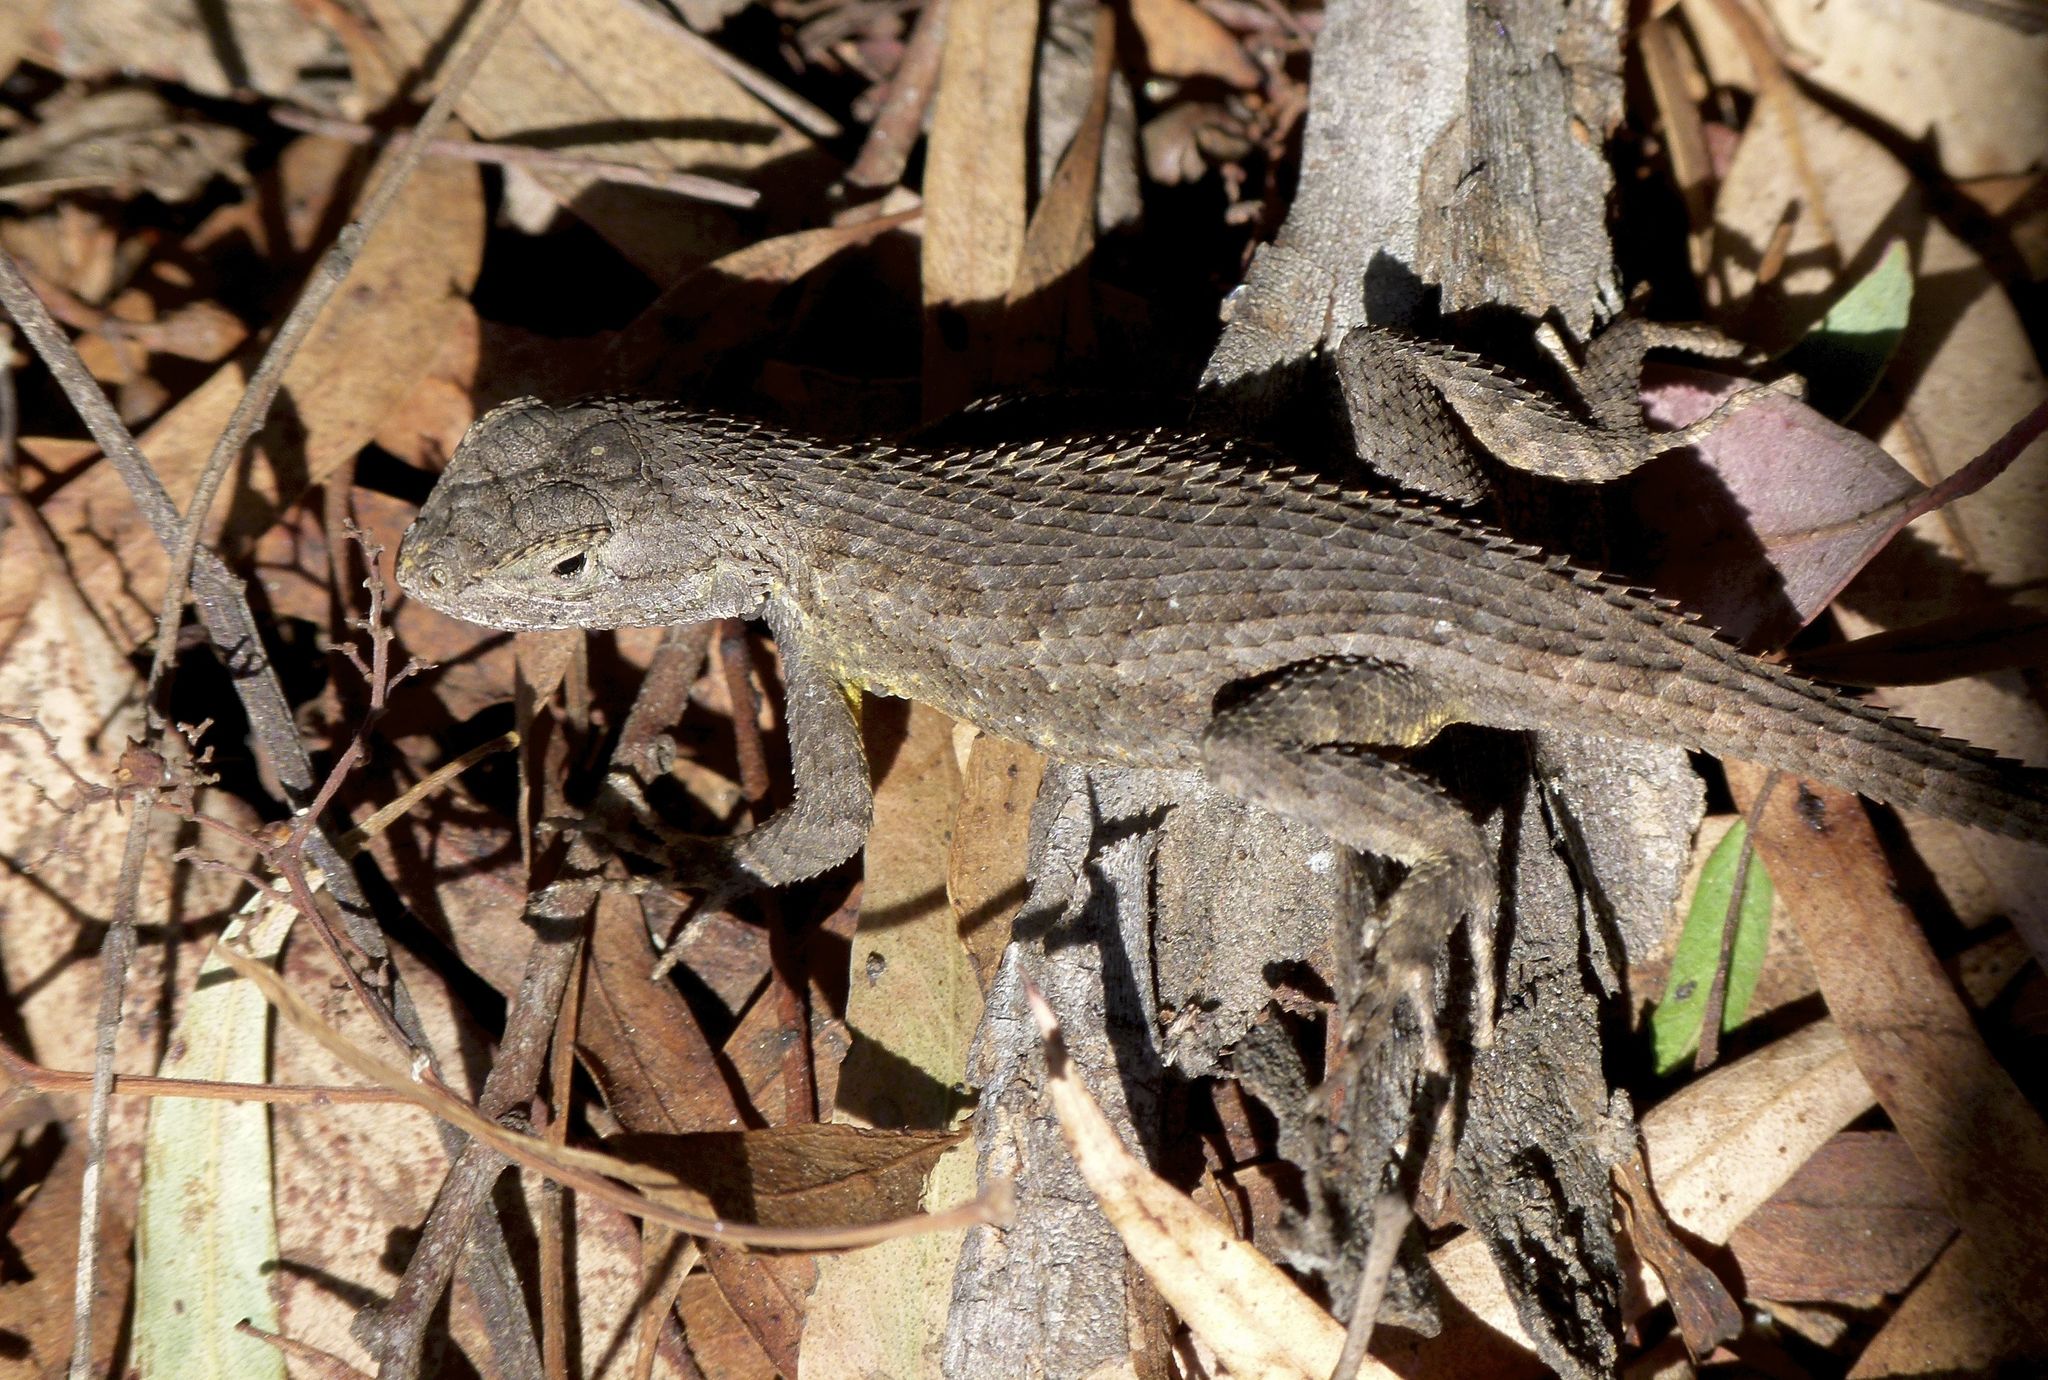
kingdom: Animalia
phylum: Chordata
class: Squamata
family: Phrynosomatidae
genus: Sceloporus
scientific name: Sceloporus occidentalis
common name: Western fence lizard
